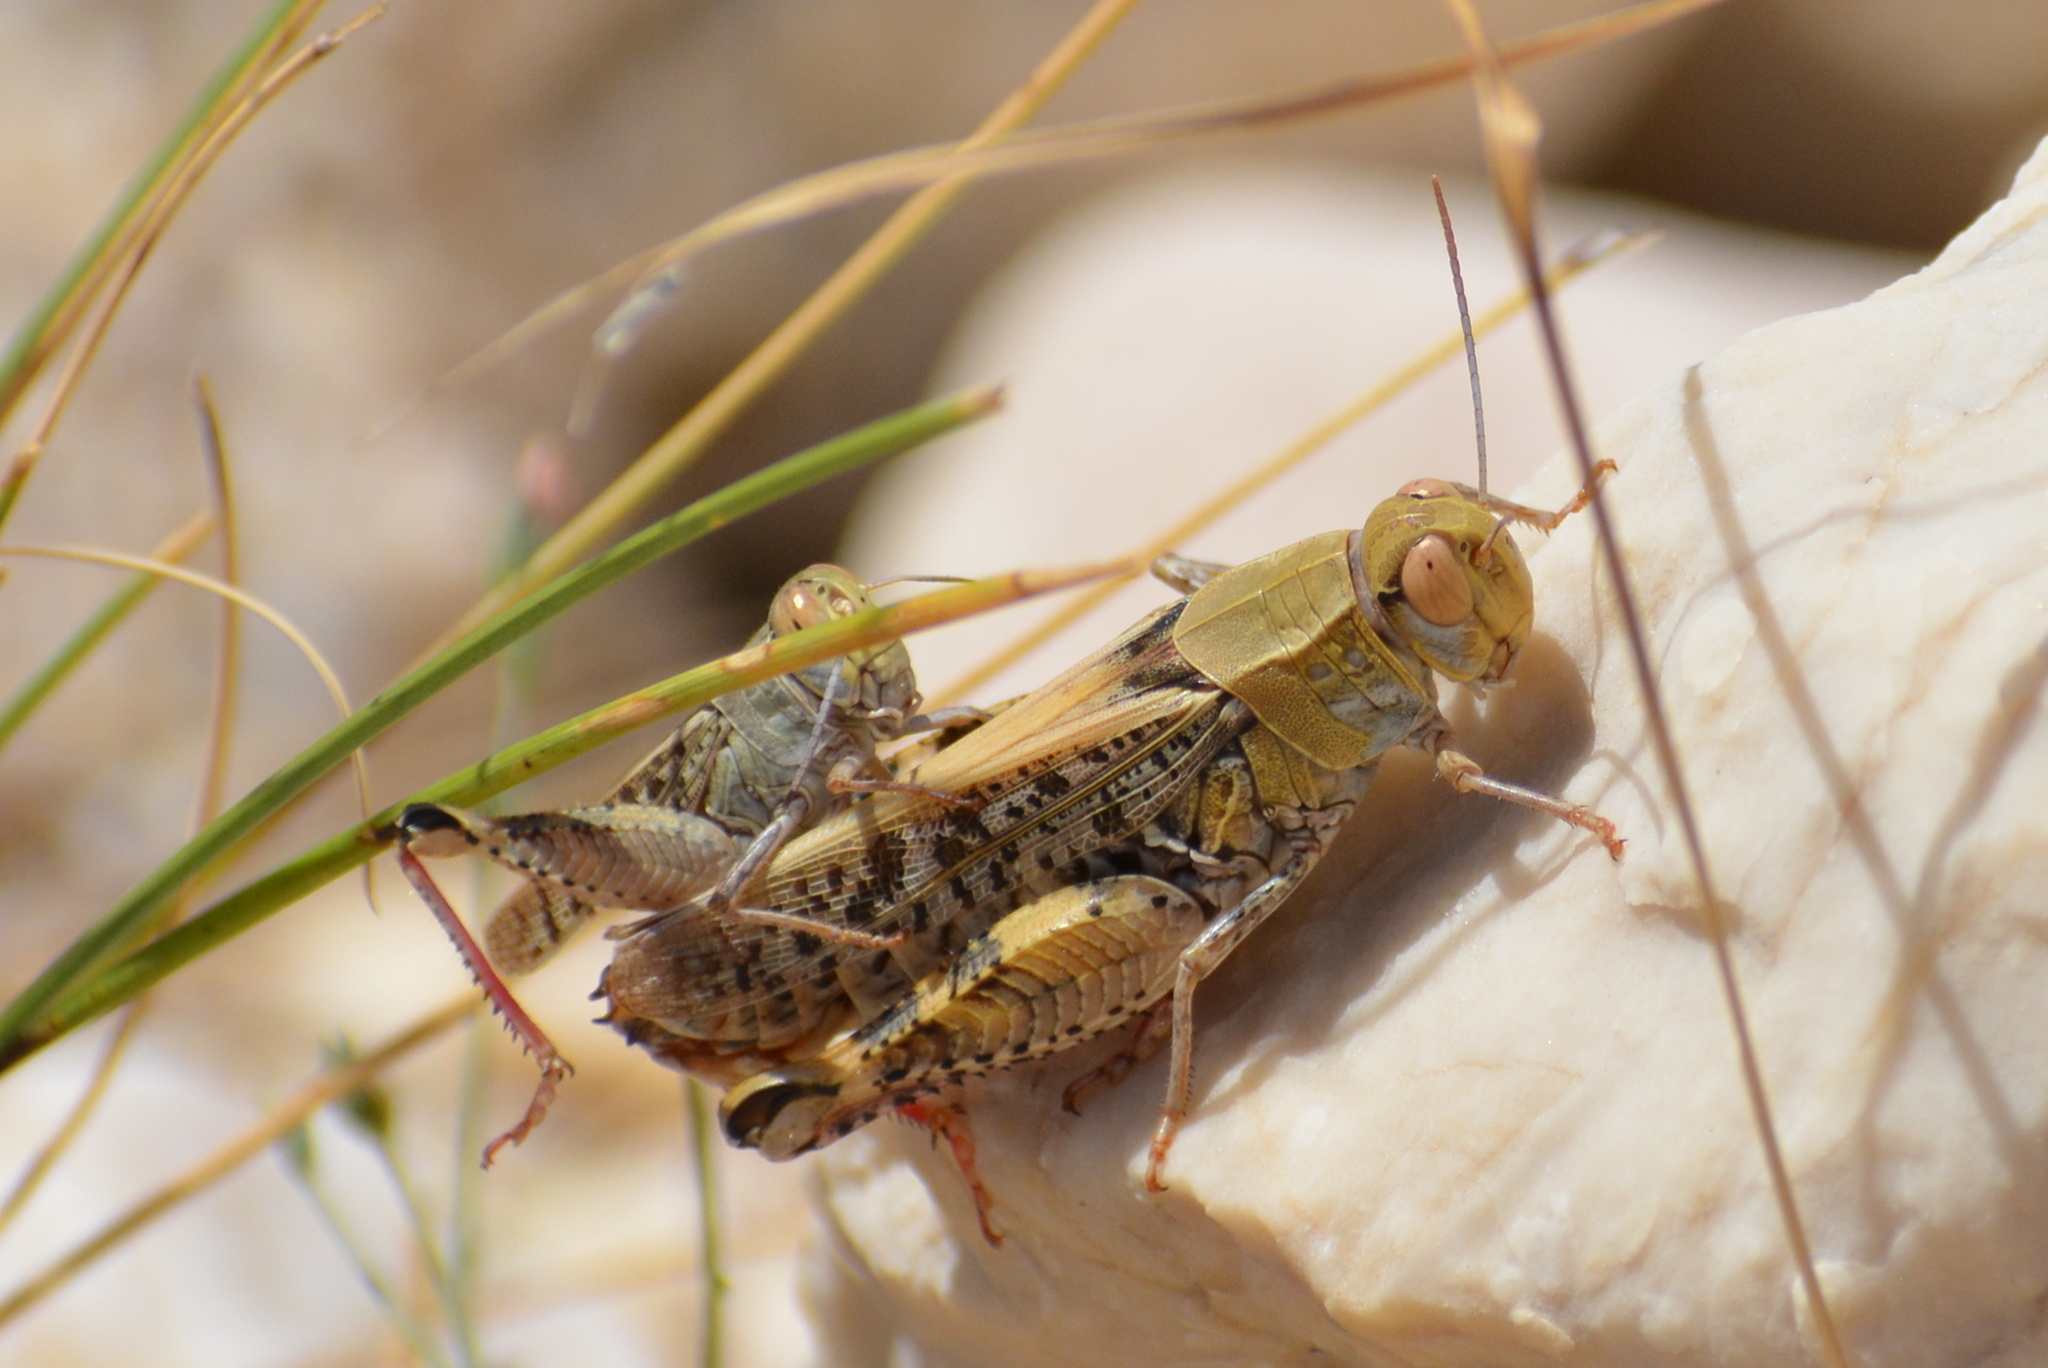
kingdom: Animalia
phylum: Arthropoda
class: Insecta
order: Orthoptera
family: Acrididae
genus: Calliptamus
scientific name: Calliptamus italicus
